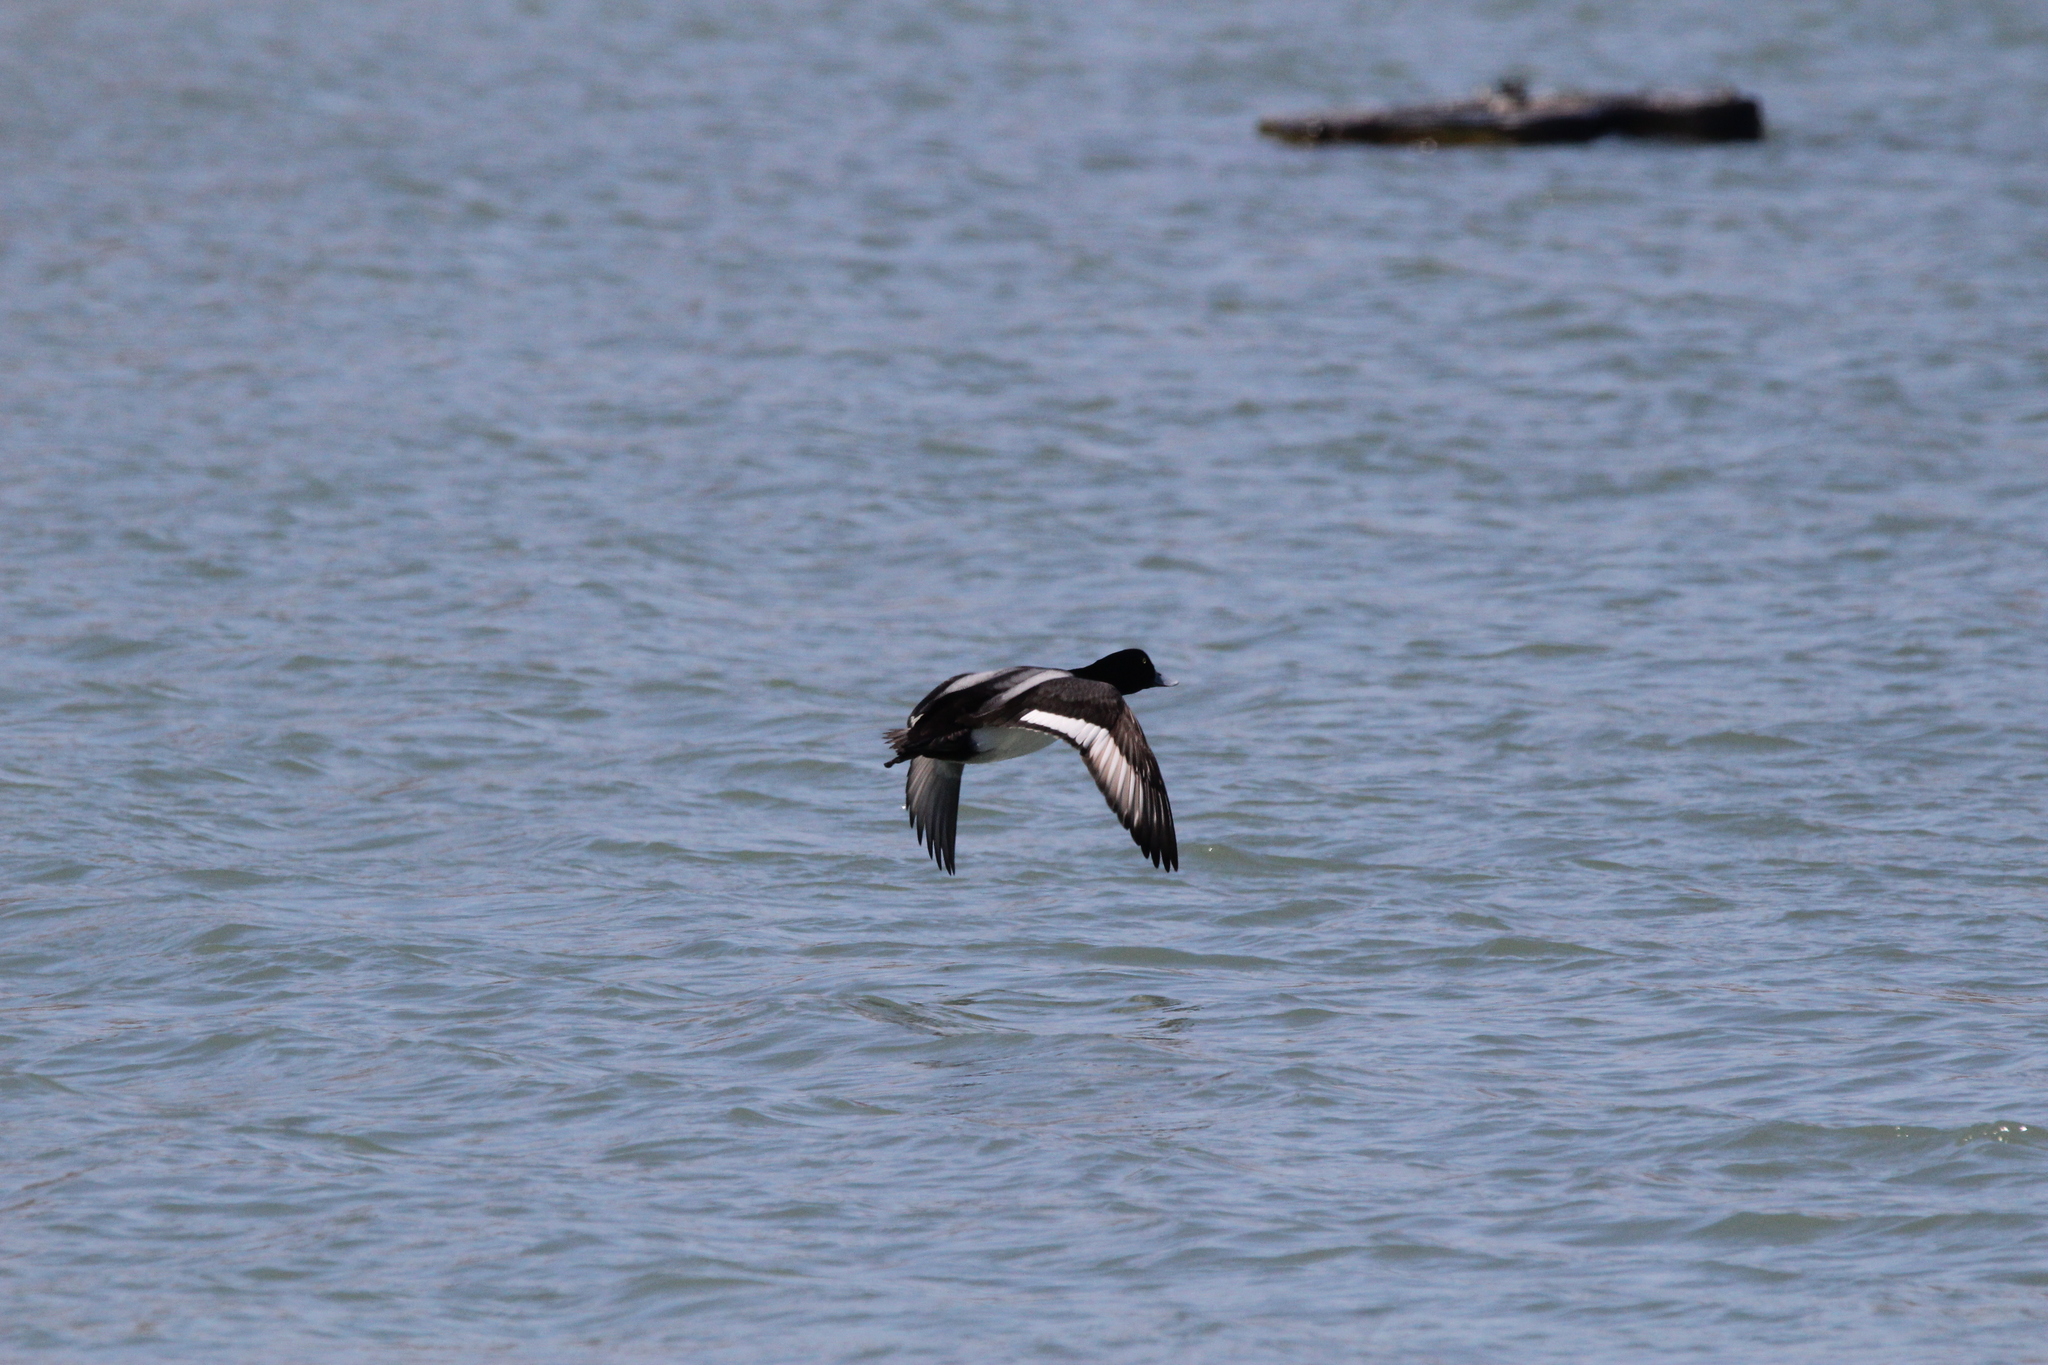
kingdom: Animalia
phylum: Chordata
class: Aves
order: Anseriformes
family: Anatidae
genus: Aythya
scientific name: Aythya marila
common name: Greater scaup
